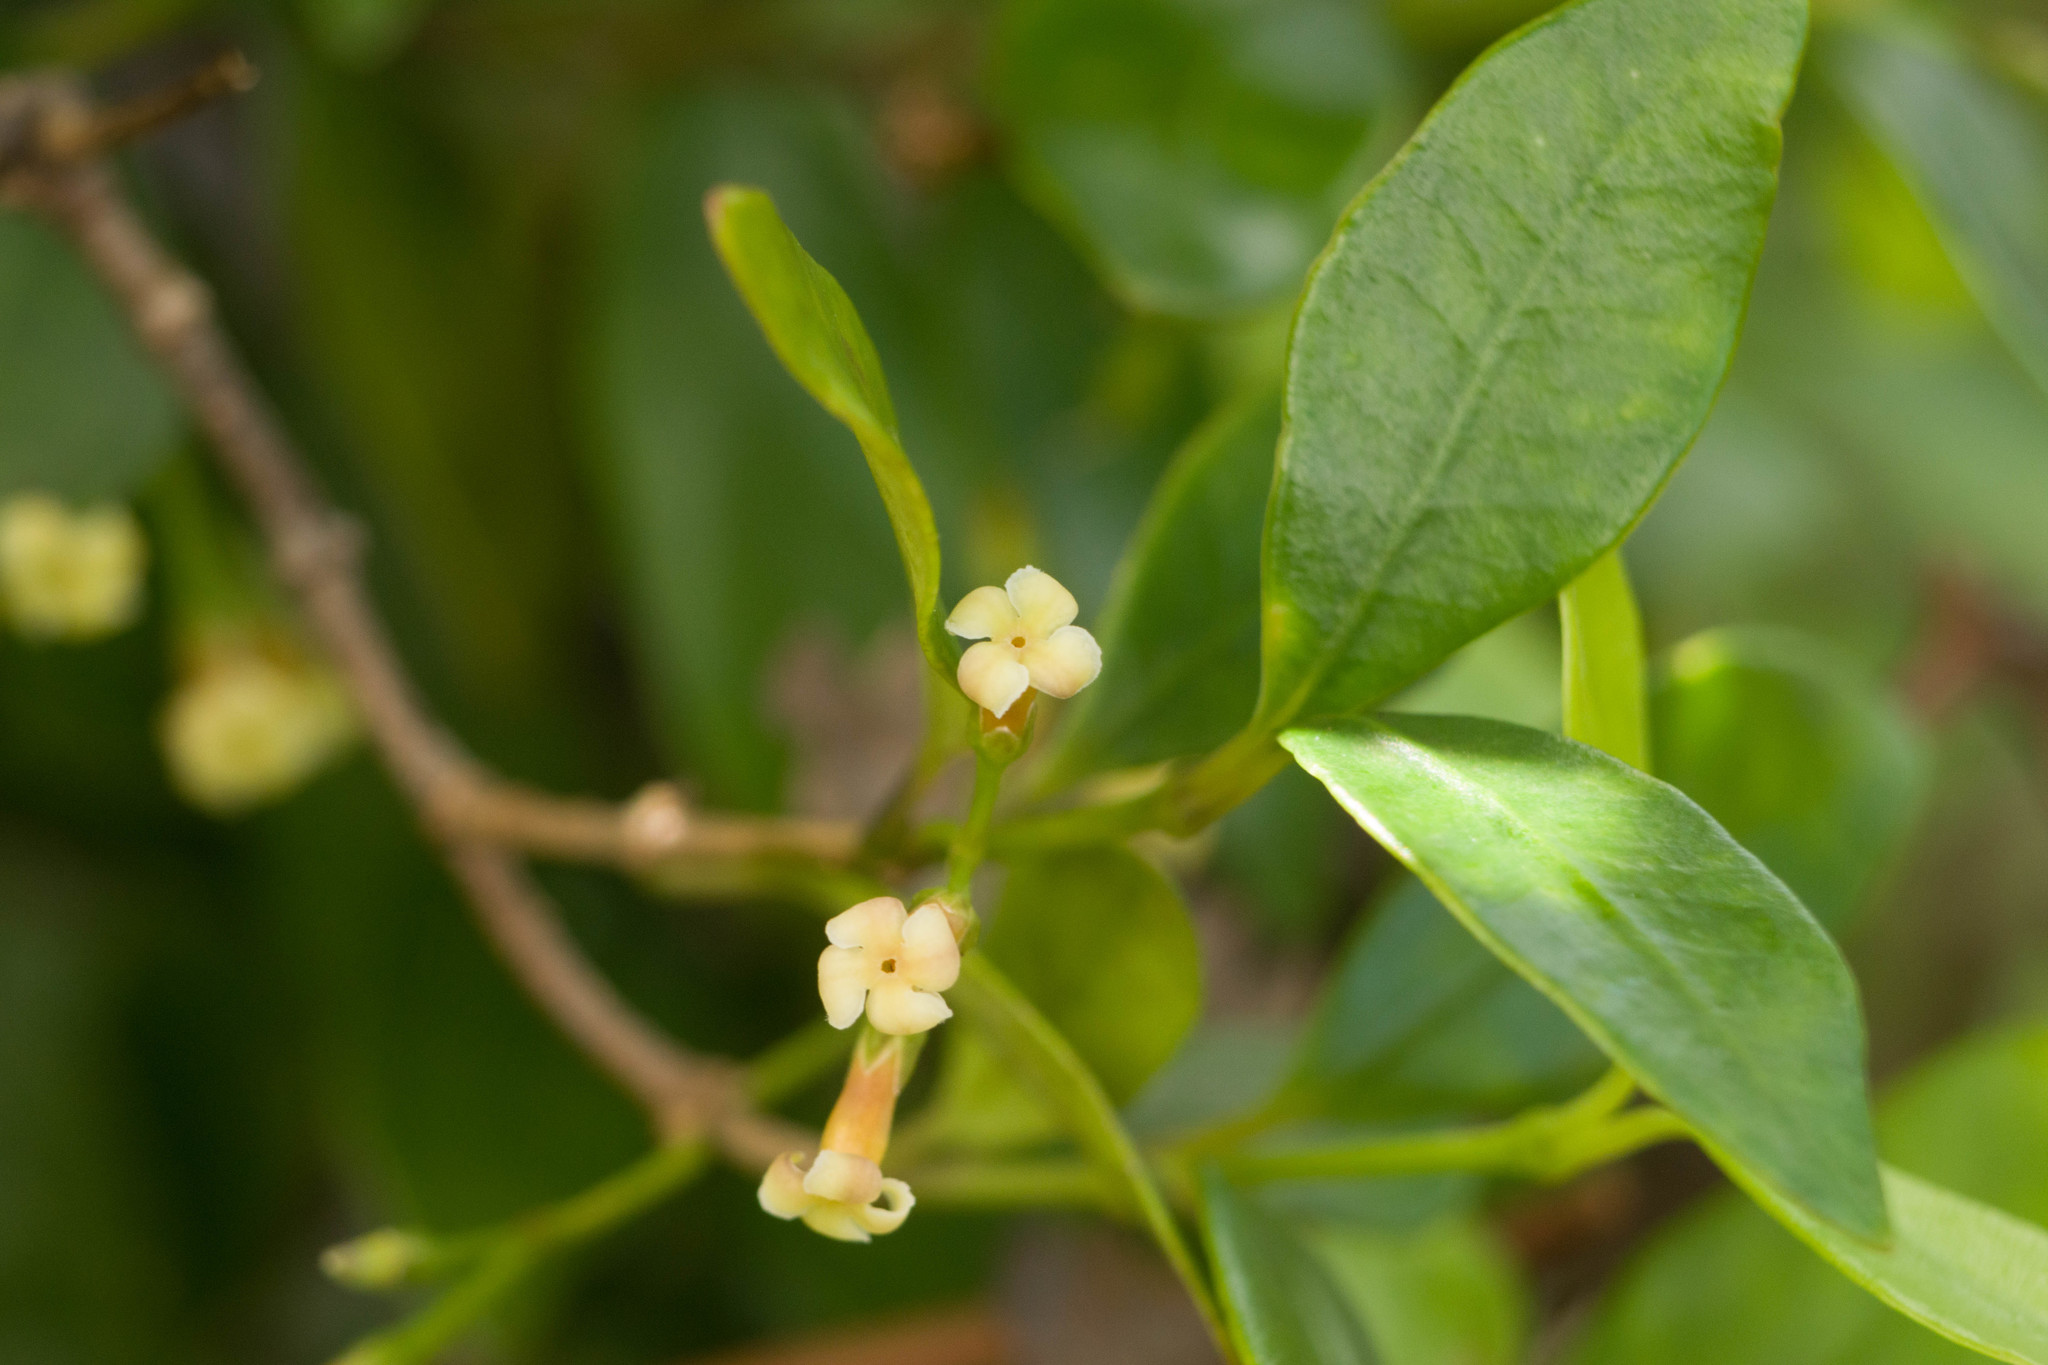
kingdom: Plantae
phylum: Tracheophyta
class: Magnoliopsida
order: Gentianales
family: Apocynaceae
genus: Alyxia
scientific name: Alyxia stellata
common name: Maile
